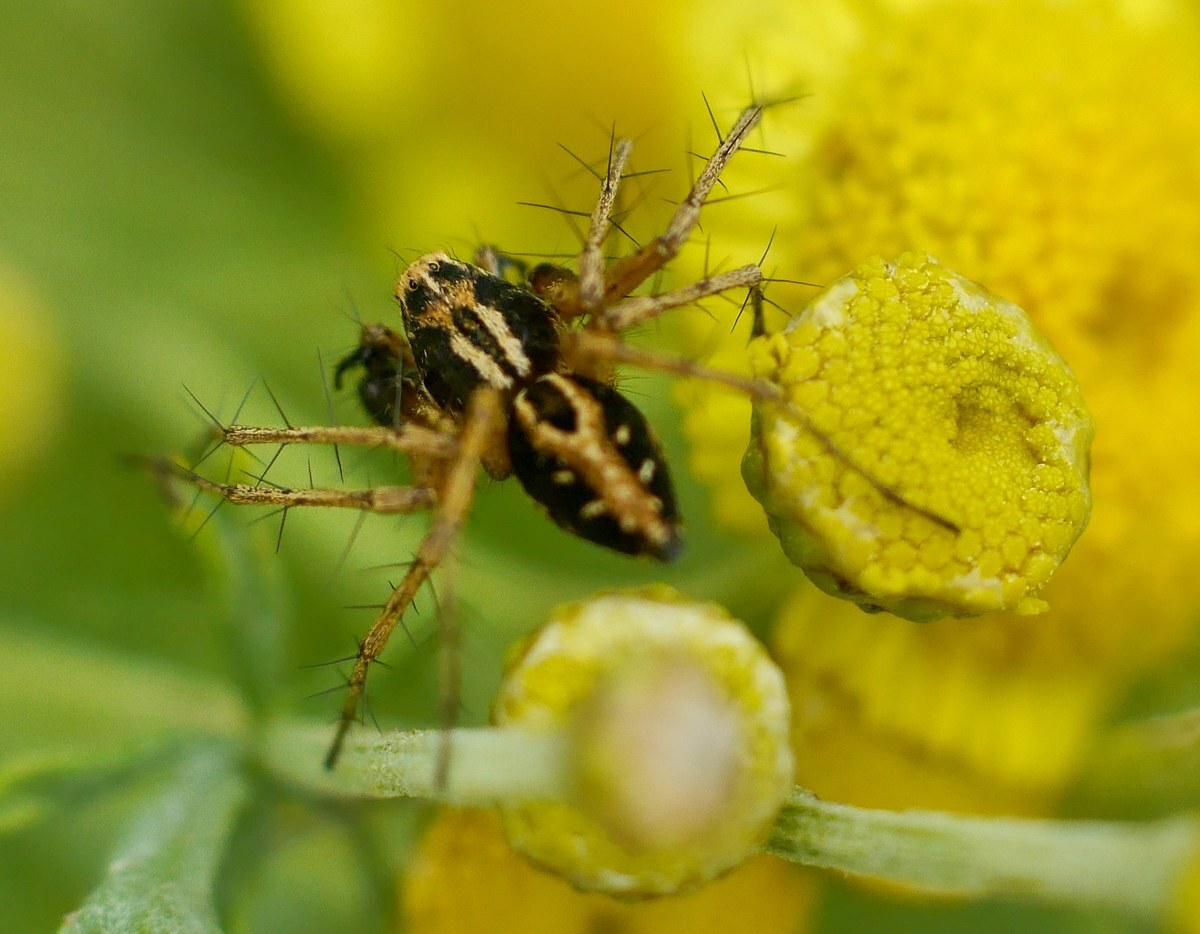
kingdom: Animalia
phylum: Arthropoda
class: Arachnida
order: Araneae
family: Oxyopidae
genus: Oxyopes
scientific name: Oxyopes heterophthalmus
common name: Lynx spider
